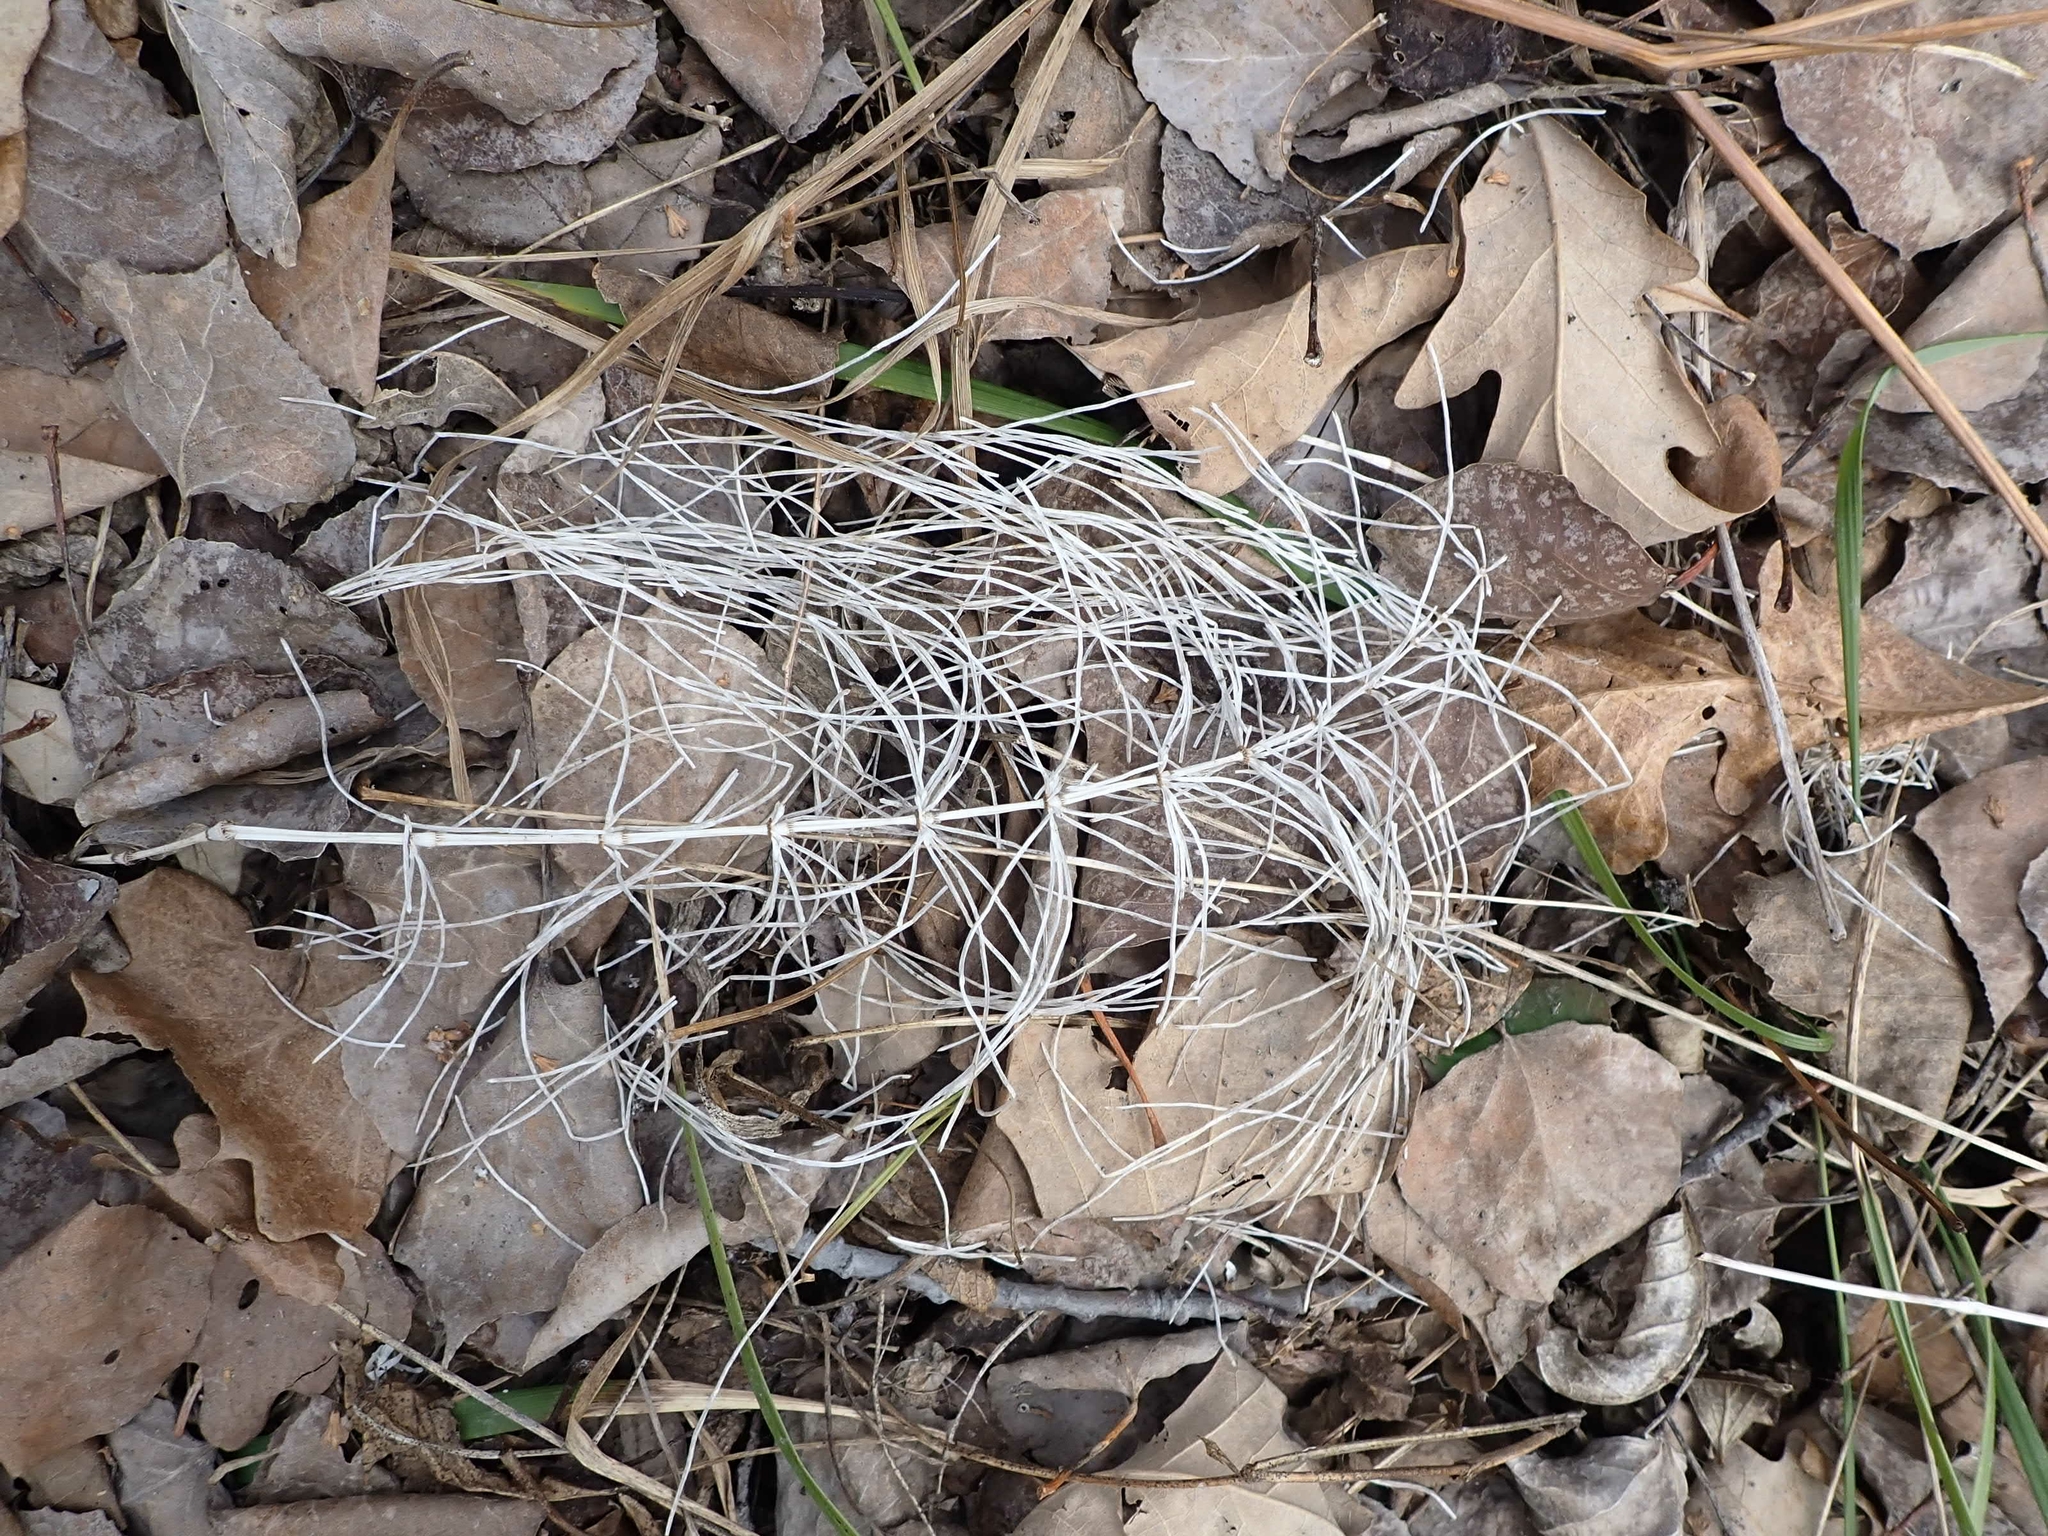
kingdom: Plantae
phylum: Tracheophyta
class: Polypodiopsida
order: Equisetales
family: Equisetaceae
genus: Equisetum
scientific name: Equisetum arvense
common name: Field horsetail
